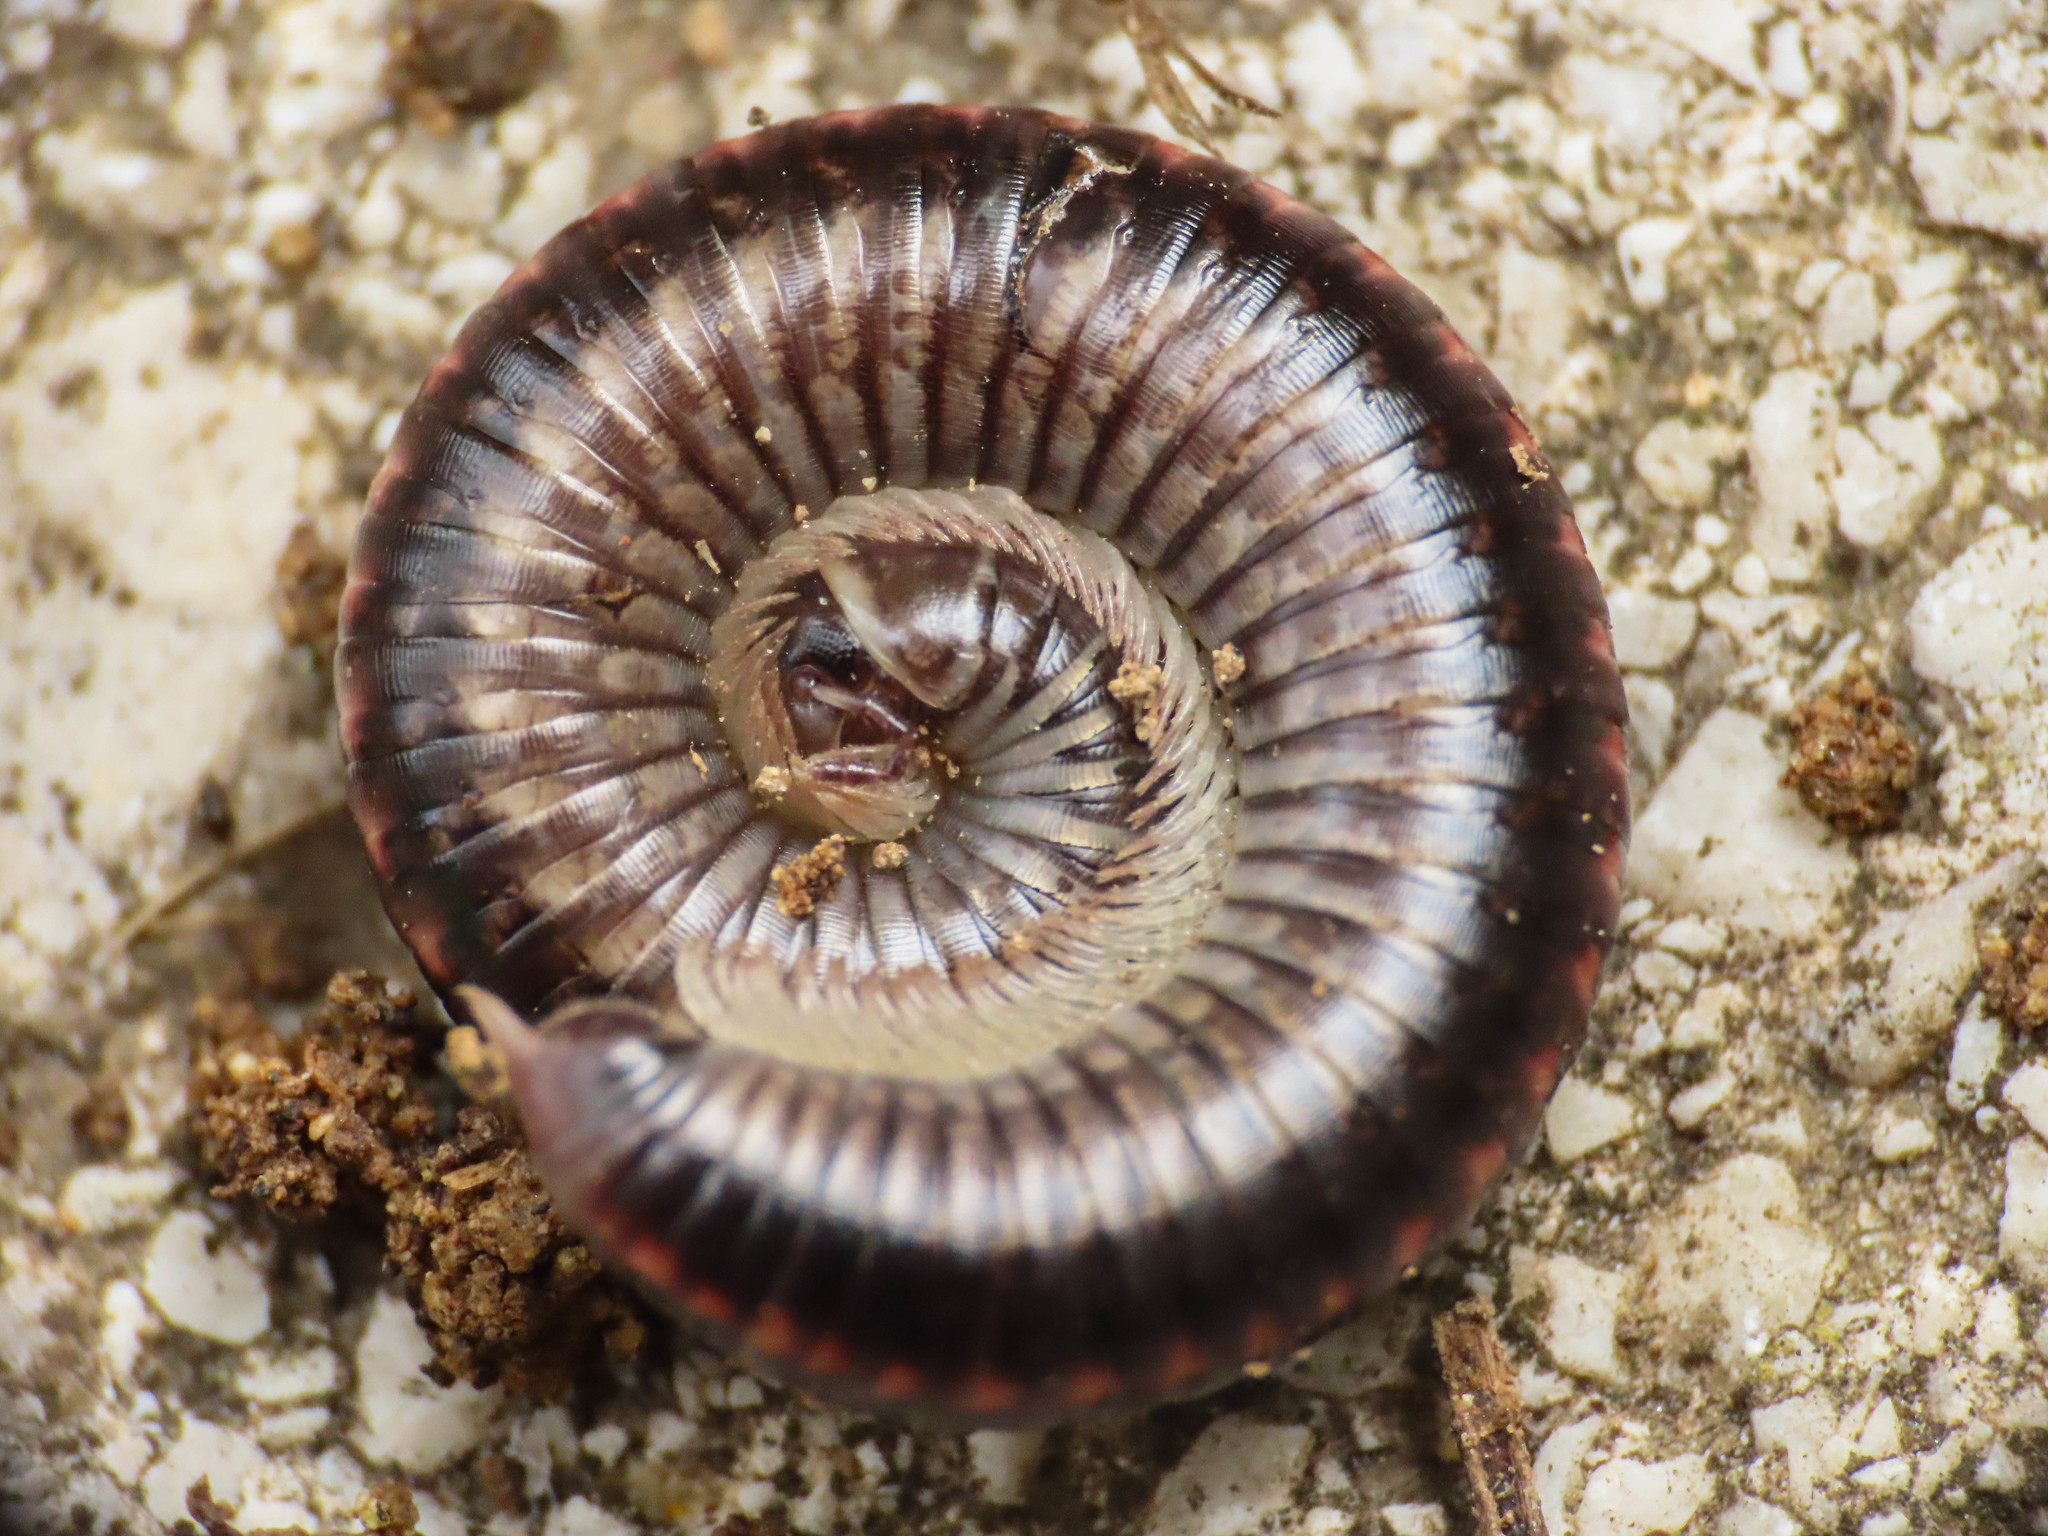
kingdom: Animalia
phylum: Arthropoda
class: Diplopoda
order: Julida
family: Julidae
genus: Ommatoiulus
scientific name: Ommatoiulus sabulosus
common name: Striped millipede
